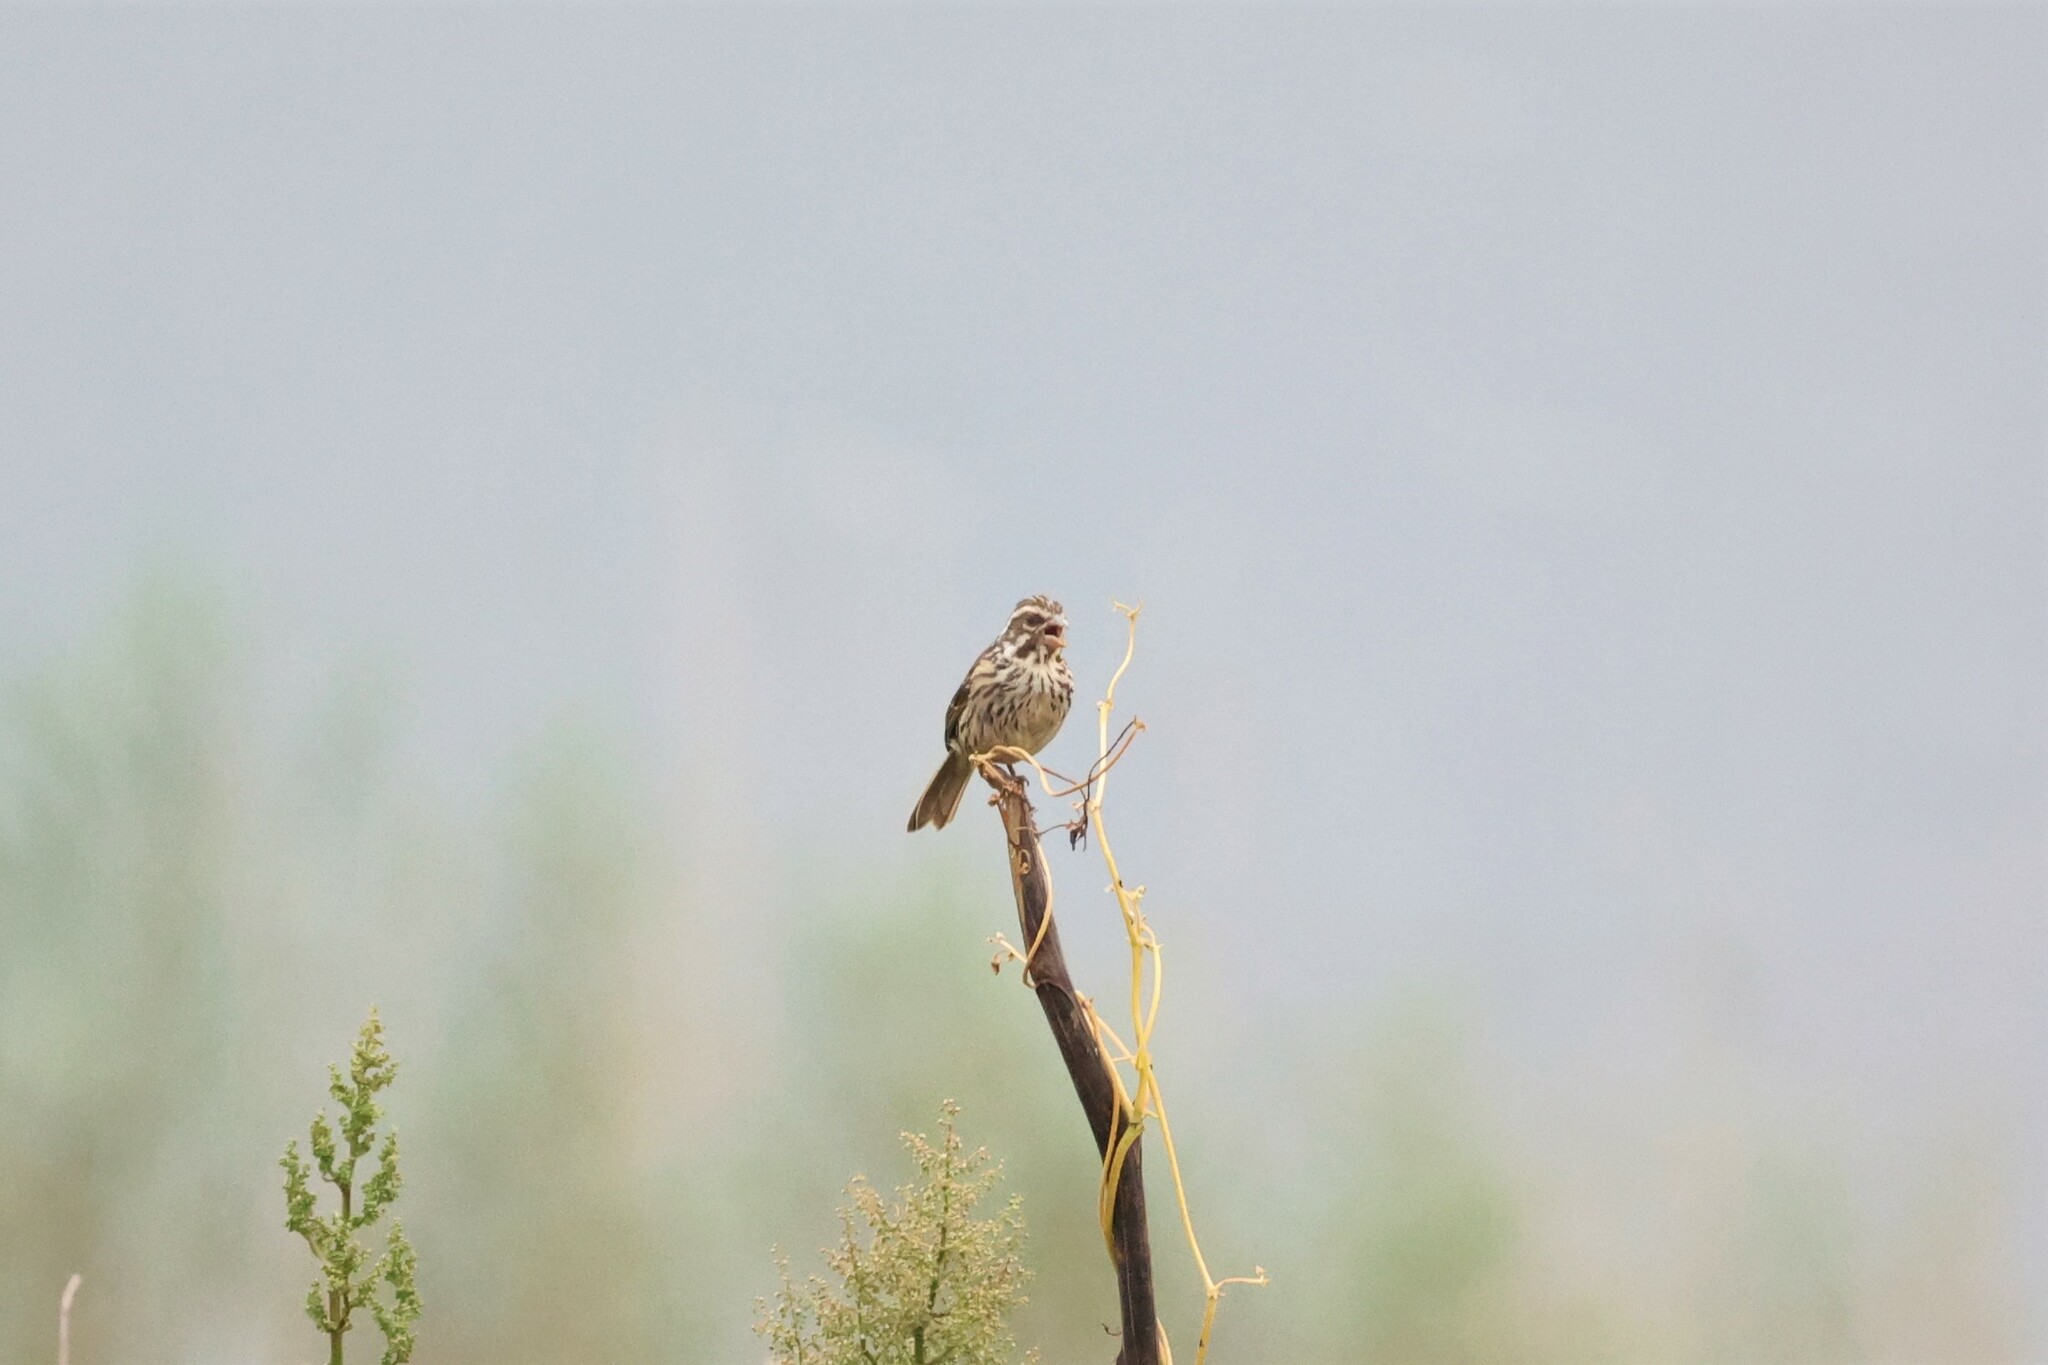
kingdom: Animalia
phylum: Chordata
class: Aves
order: Passeriformes
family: Fringillidae
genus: Crithagra
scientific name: Crithagra striolata
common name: Streaky seedeater
